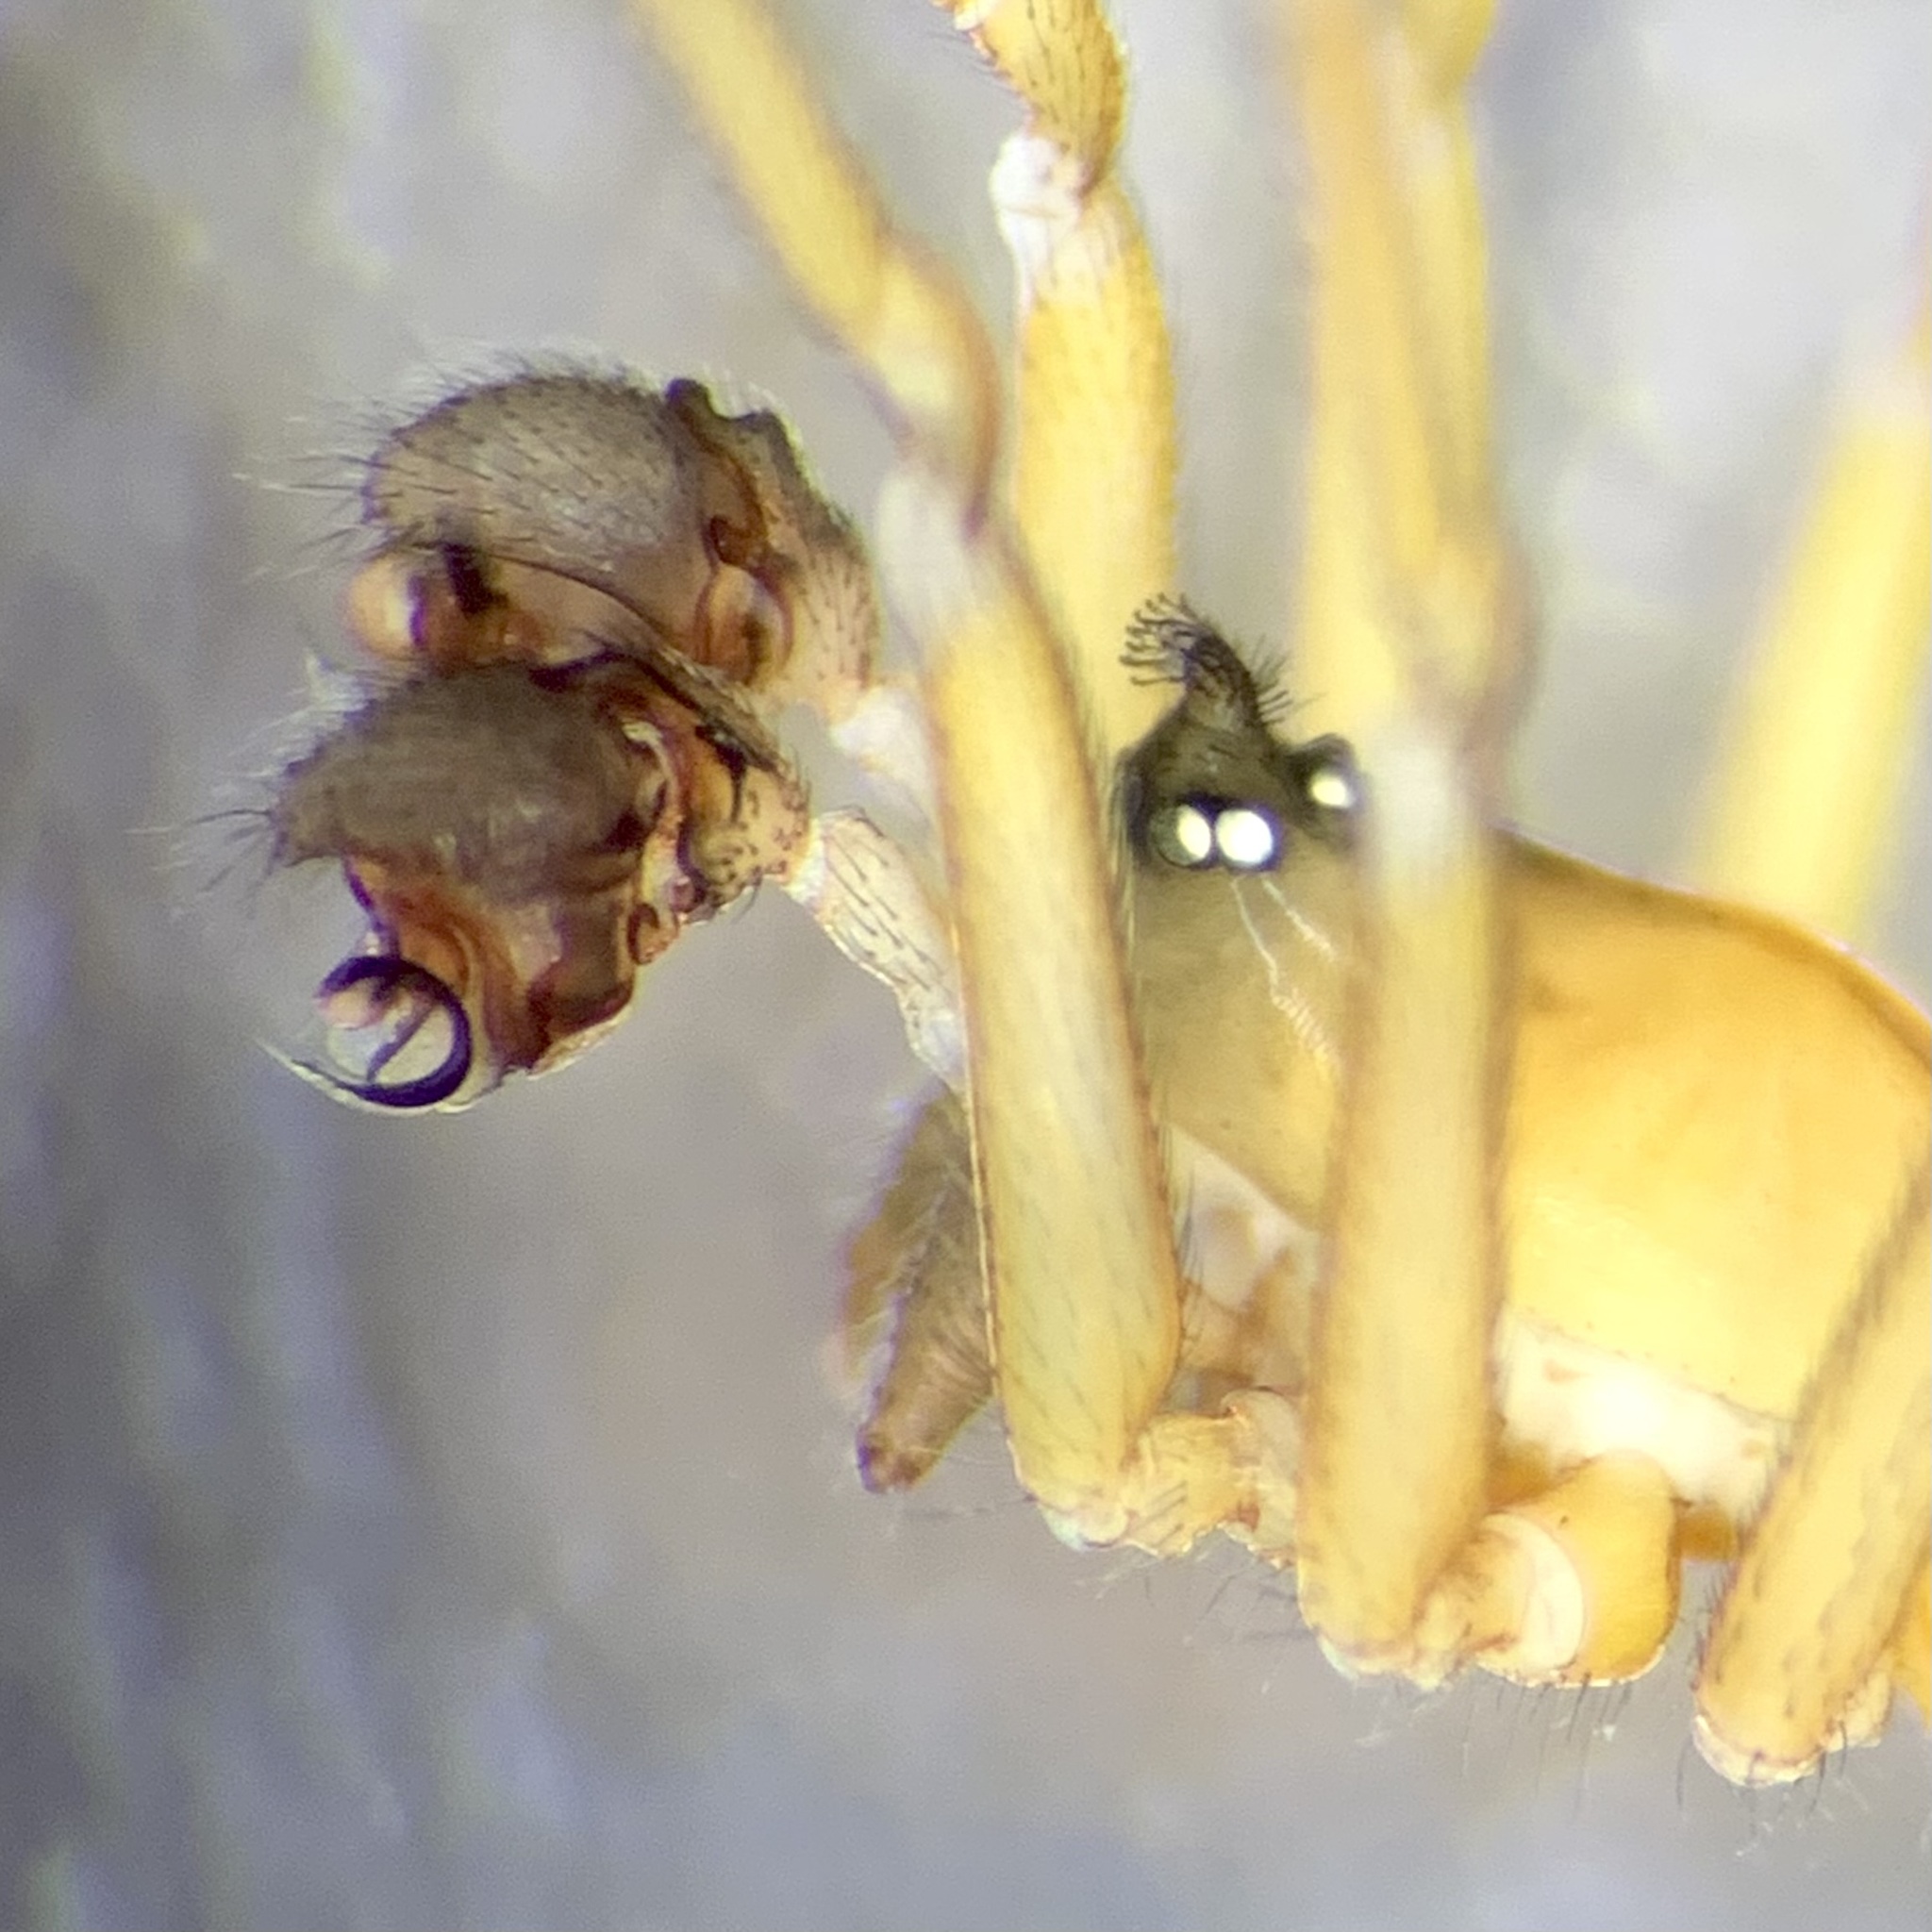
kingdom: Animalia
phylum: Arthropoda
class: Arachnida
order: Araneae
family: Linyphiidae
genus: Walckenaeria
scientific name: Walckenaeria corniculans
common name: Small-horned walckenaer
